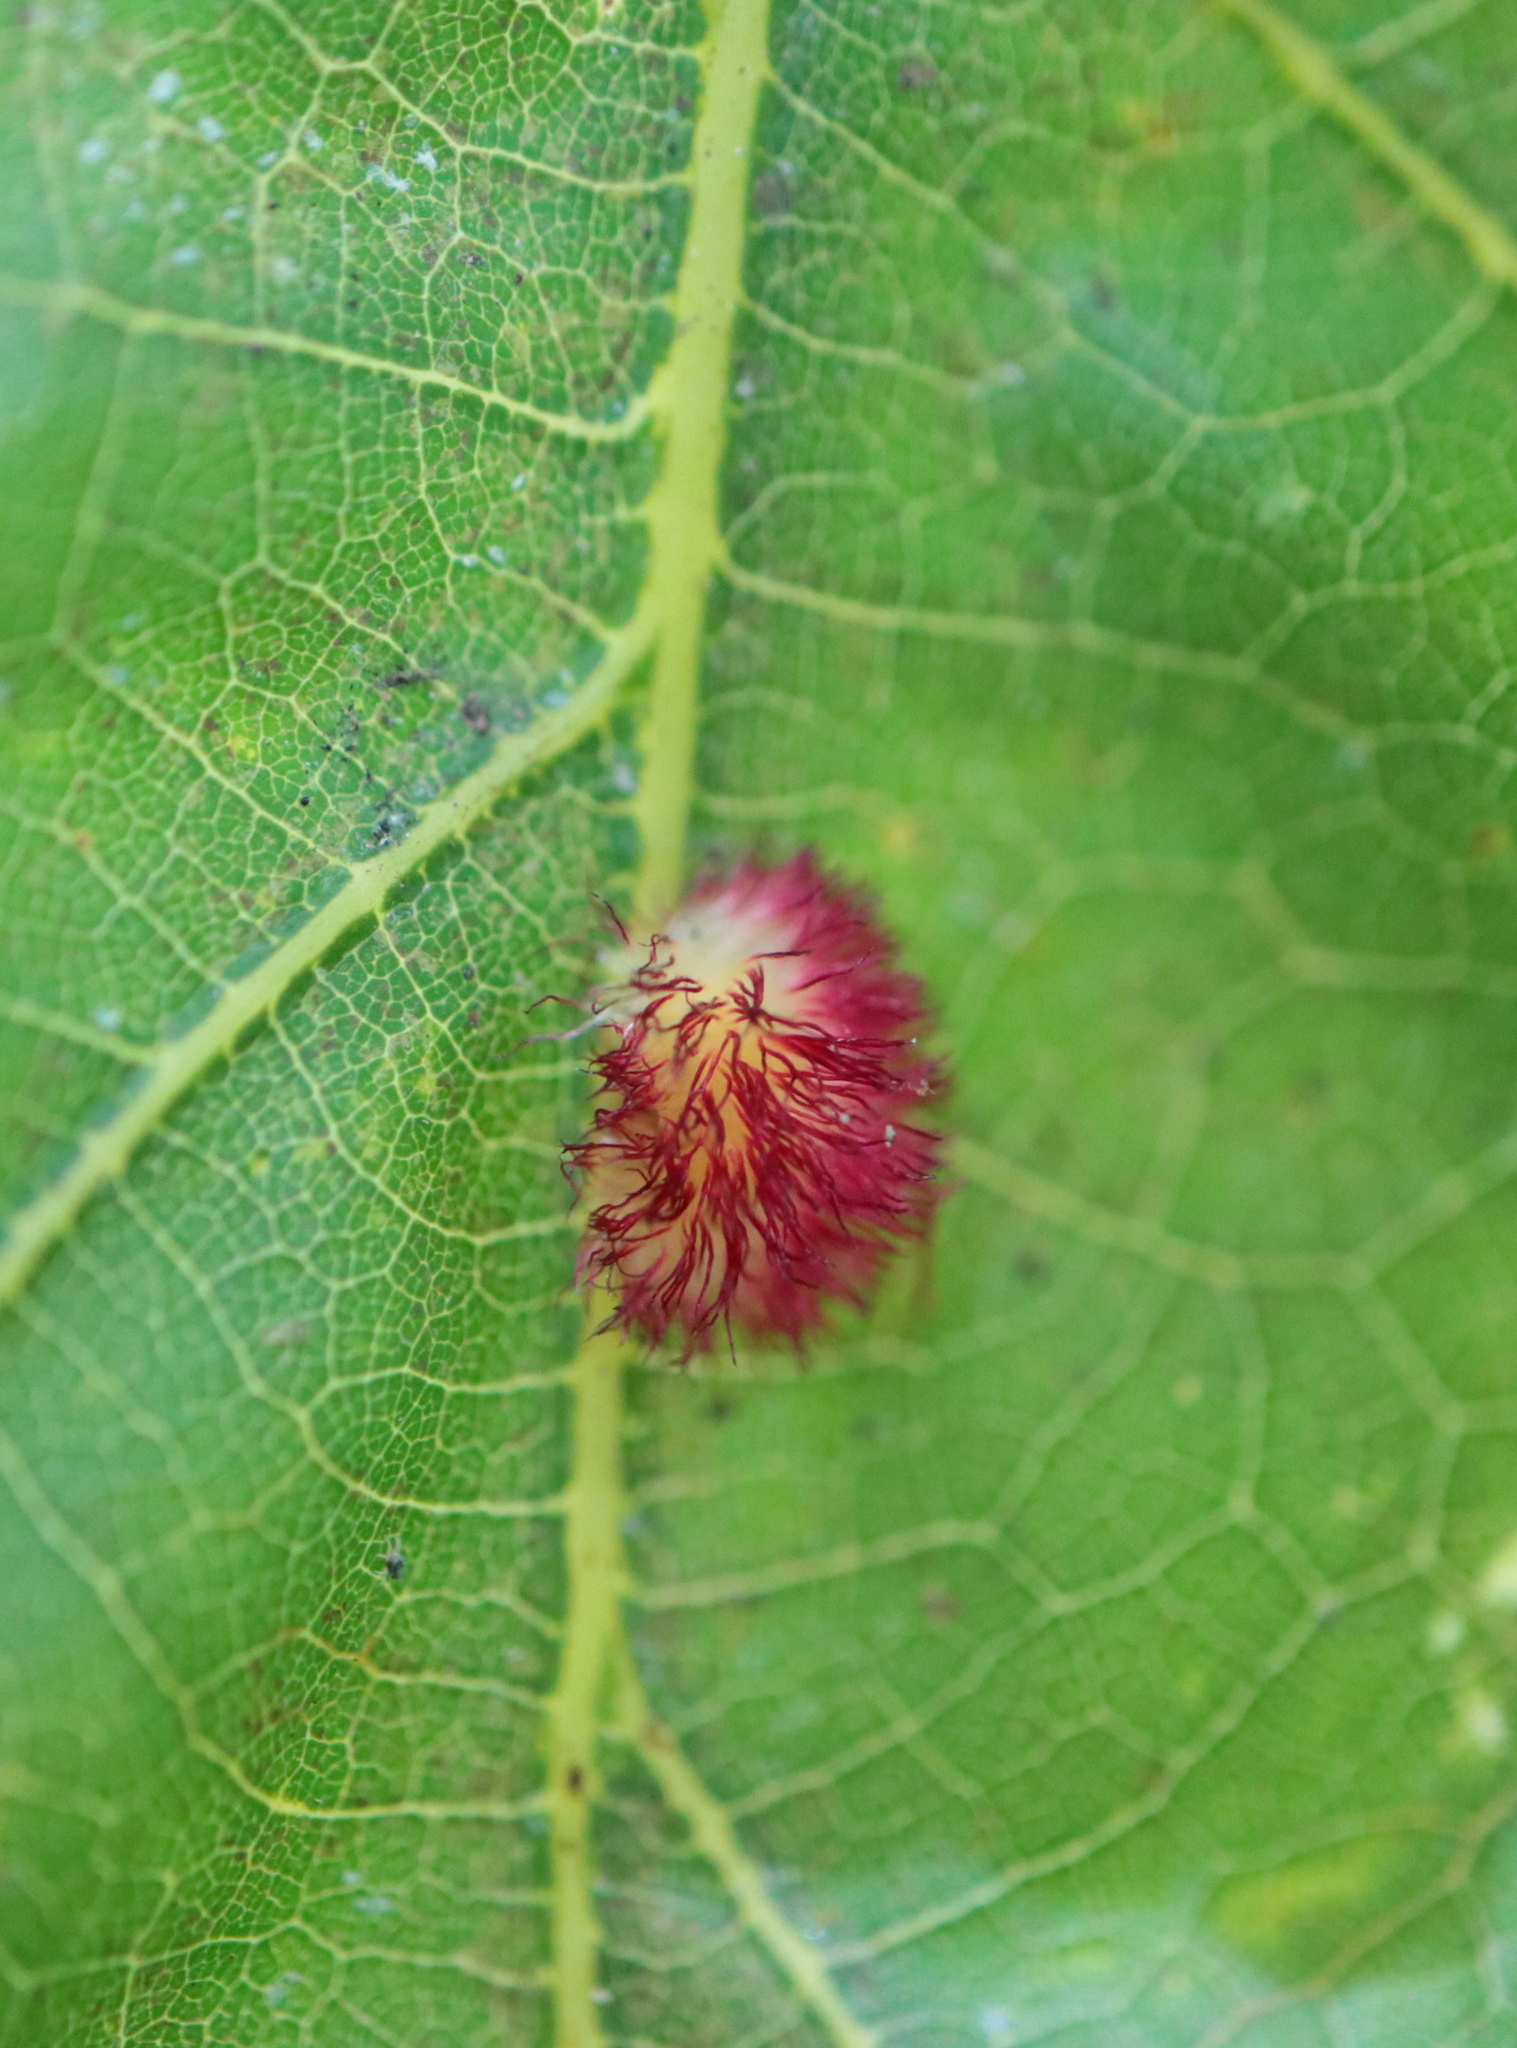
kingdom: Animalia
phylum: Arthropoda
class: Insecta
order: Hymenoptera
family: Cynipidae
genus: Acraspis
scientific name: Acraspis erinacei
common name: Hedgehog gall wasp
